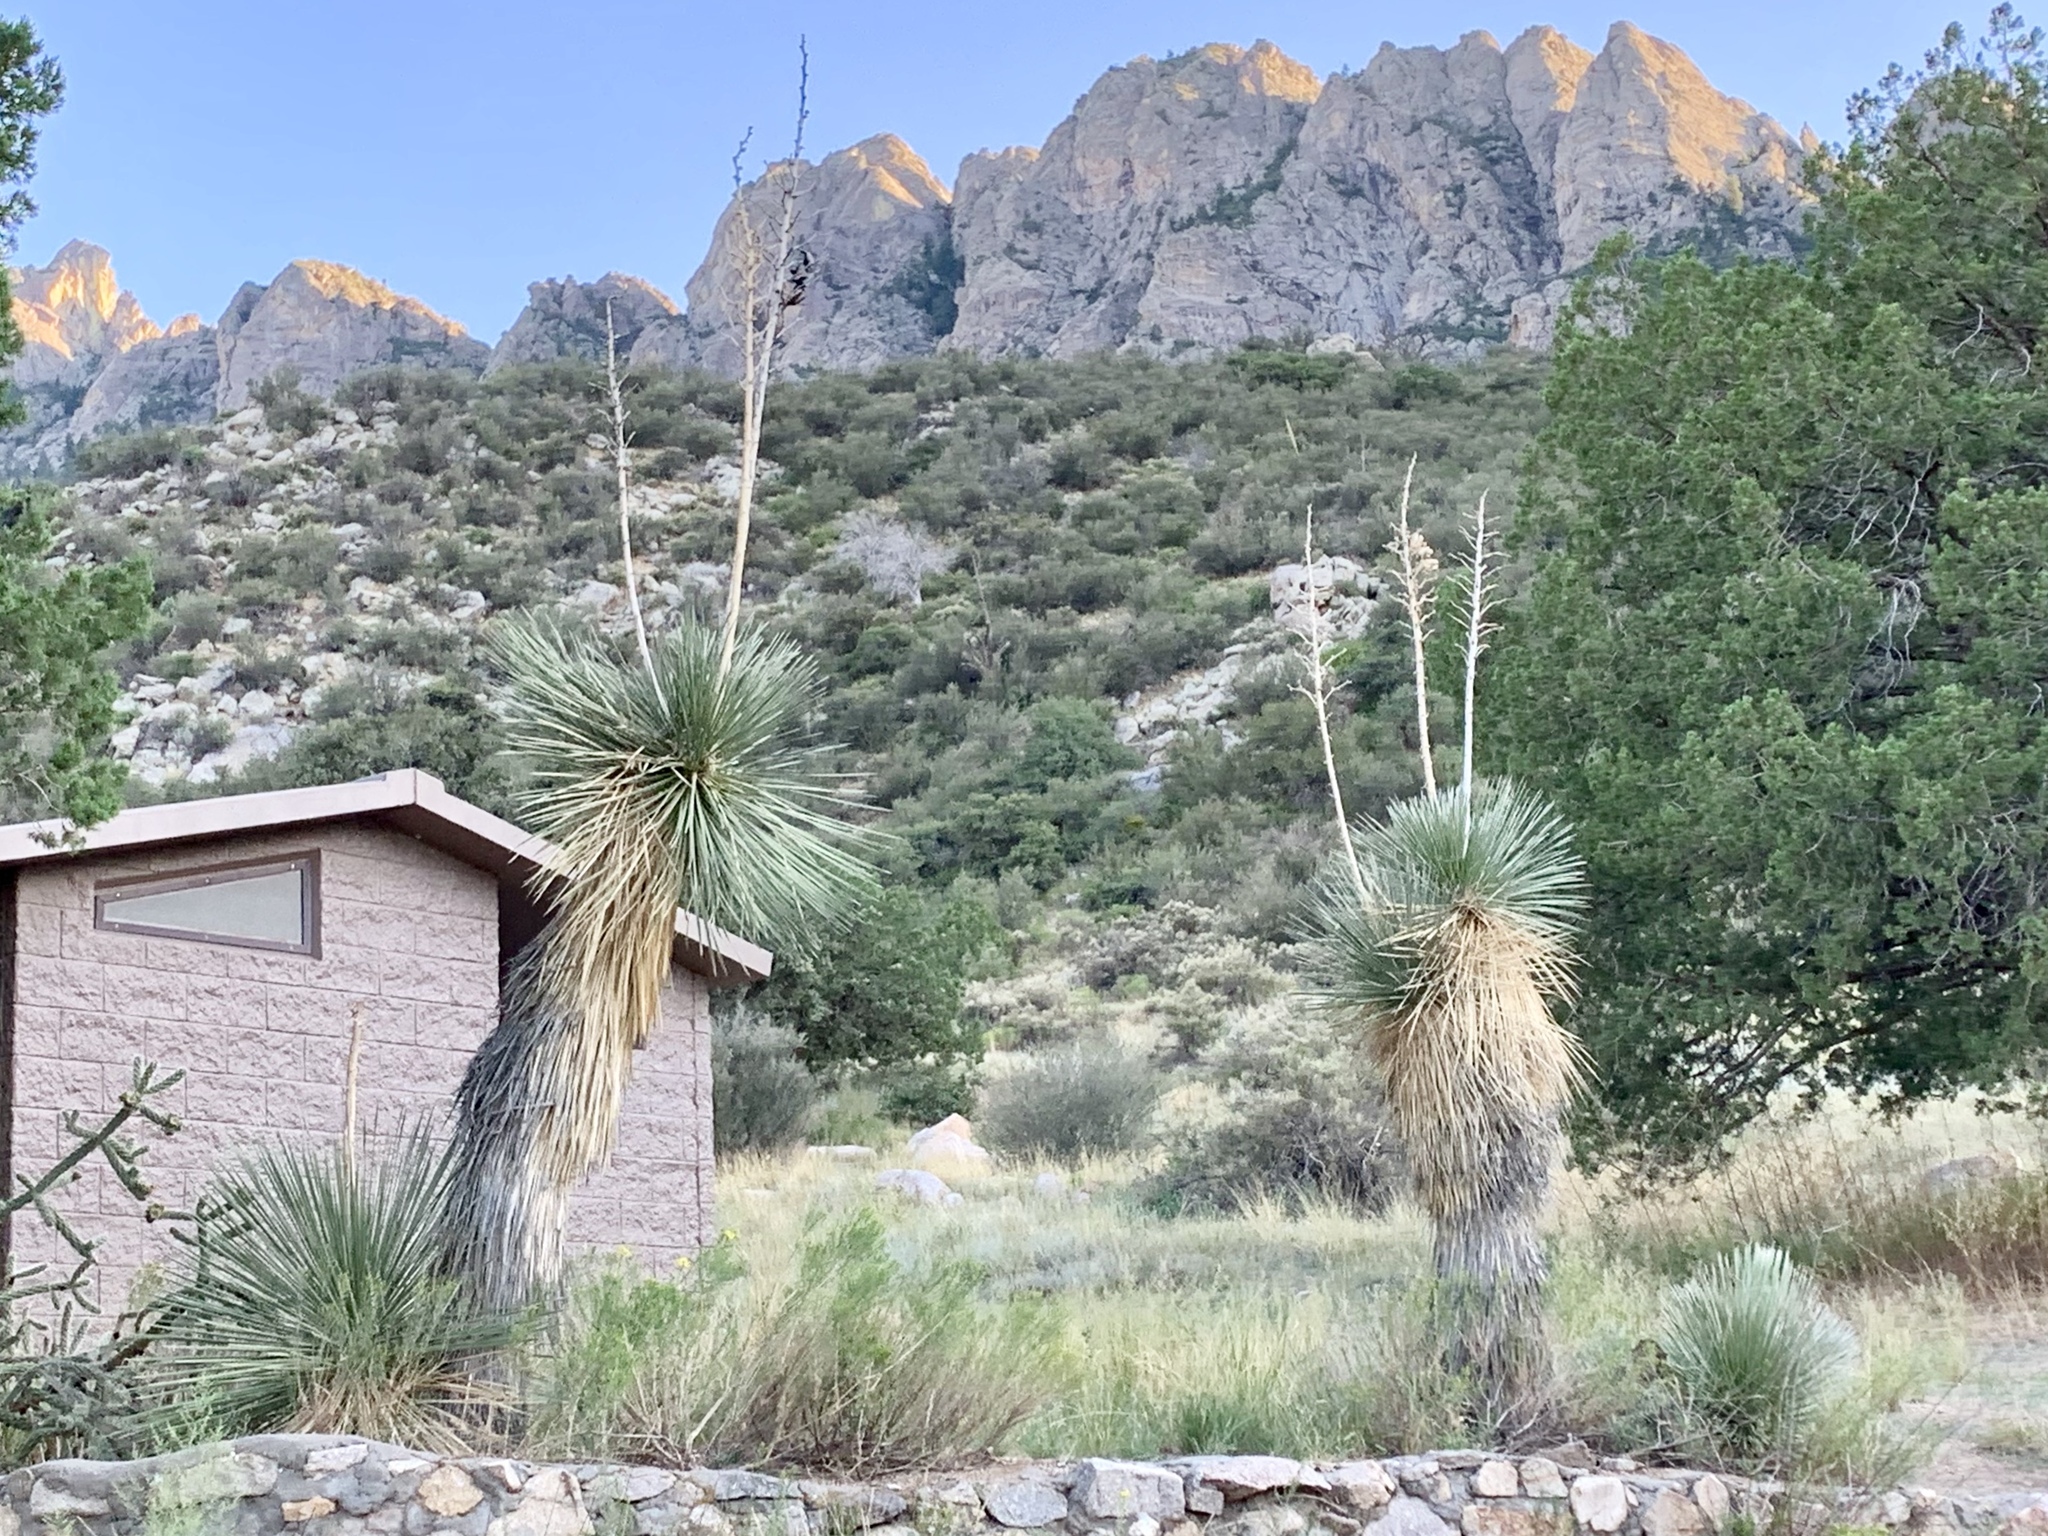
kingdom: Plantae
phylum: Tracheophyta
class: Liliopsida
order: Asparagales
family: Asparagaceae
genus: Yucca
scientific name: Yucca elata
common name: Palmella
